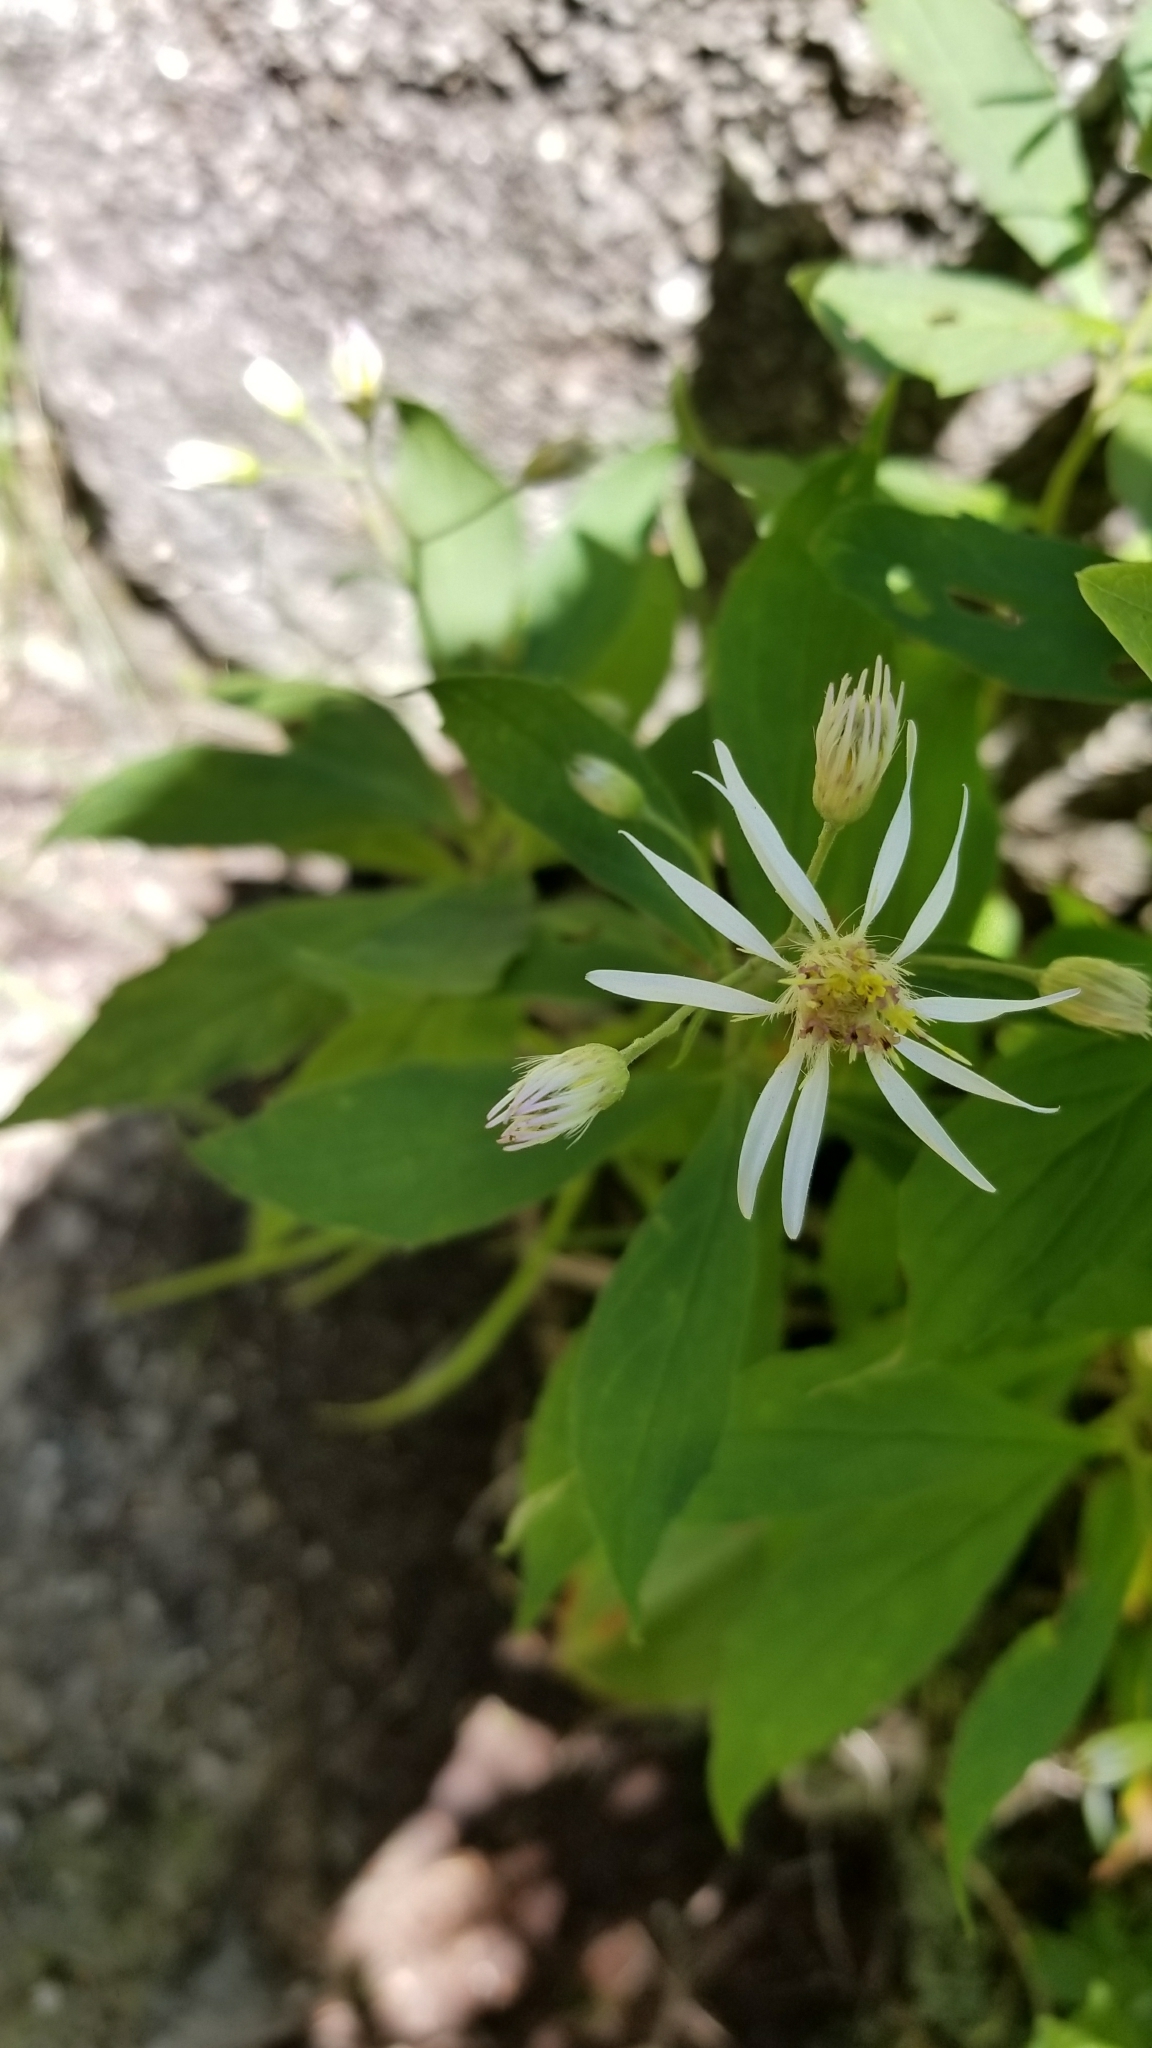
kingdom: Plantae
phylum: Tracheophyta
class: Magnoliopsida
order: Asterales
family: Asteraceae
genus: Oclemena
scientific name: Oclemena acuminata
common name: Mountain aster
